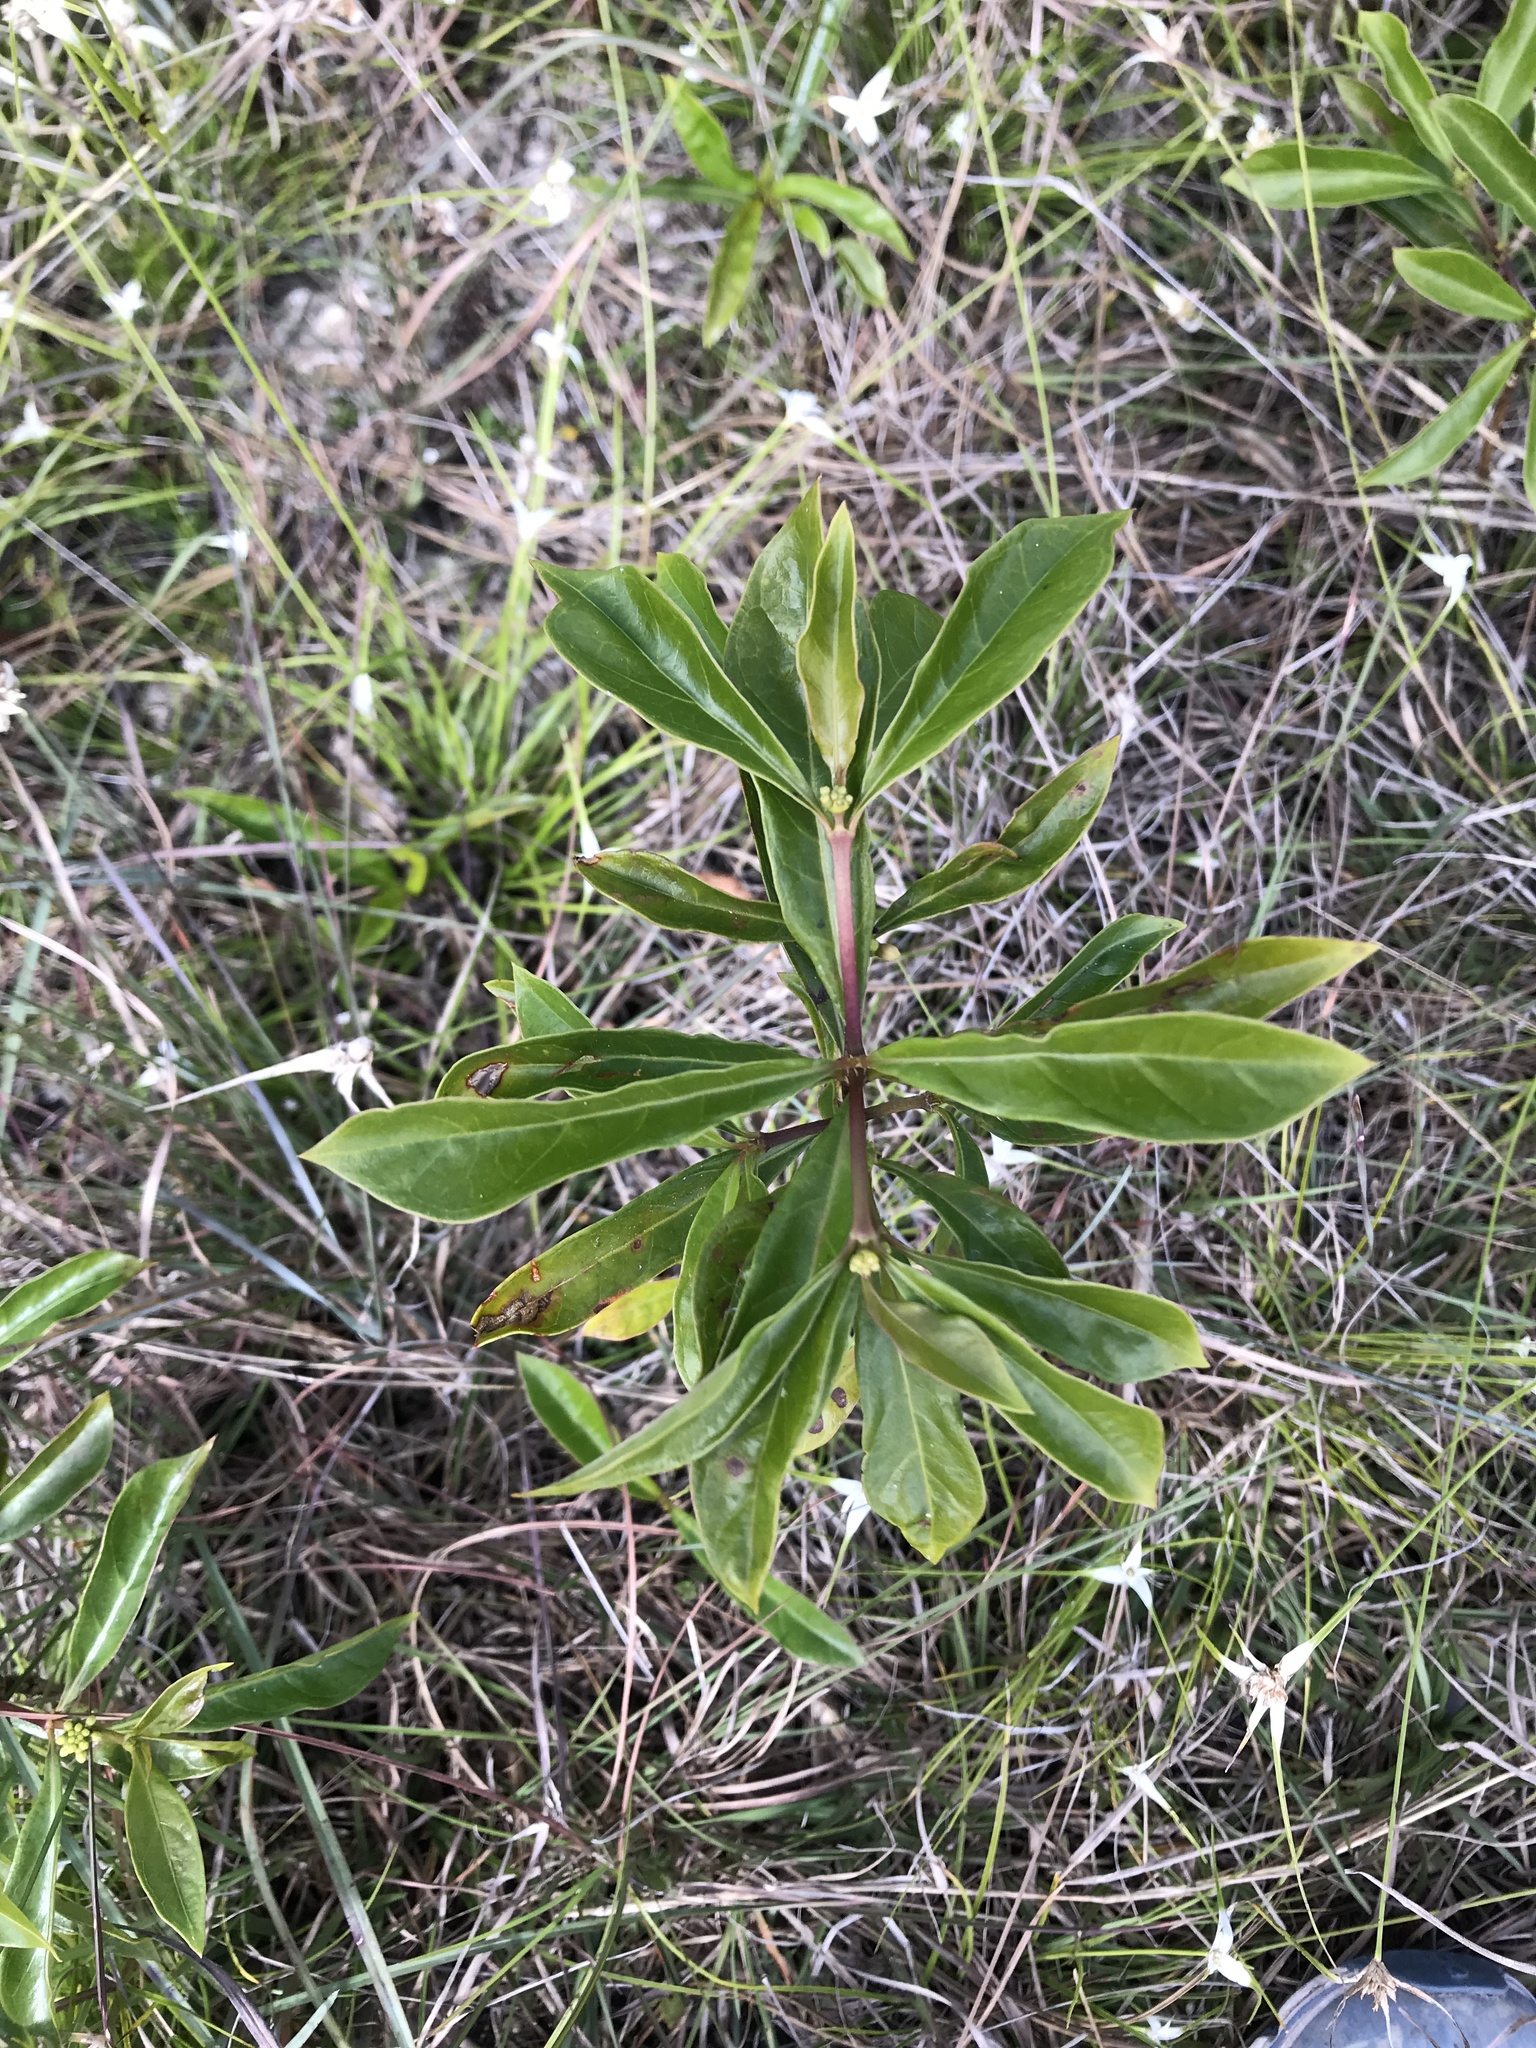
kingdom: Plantae
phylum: Tracheophyta
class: Magnoliopsida
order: Gentianales
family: Rubiaceae
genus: Morinda
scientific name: Morinda royoc
